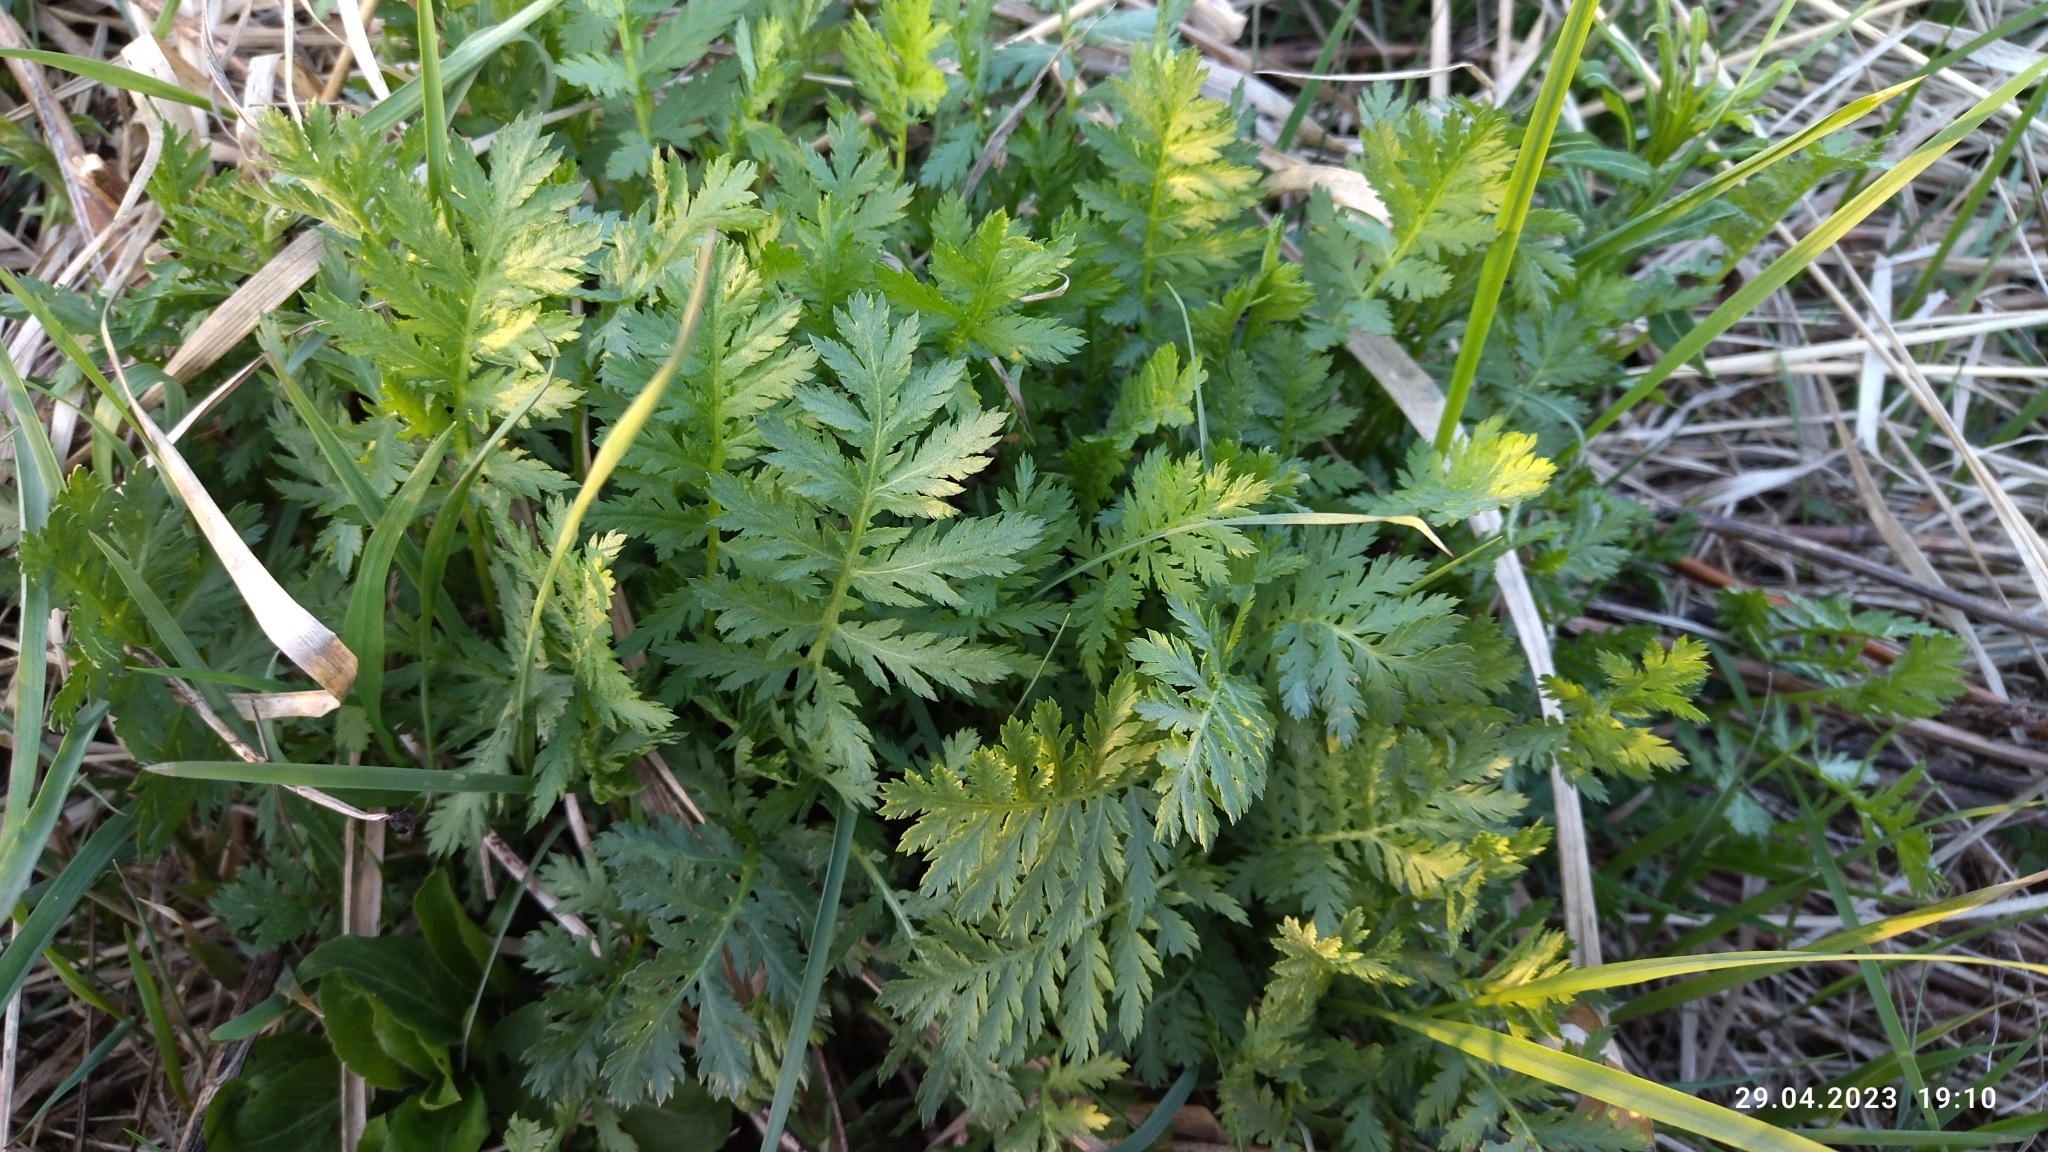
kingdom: Plantae
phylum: Tracheophyta
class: Magnoliopsida
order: Asterales
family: Asteraceae
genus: Tanacetum
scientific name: Tanacetum vulgare
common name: Common tansy
